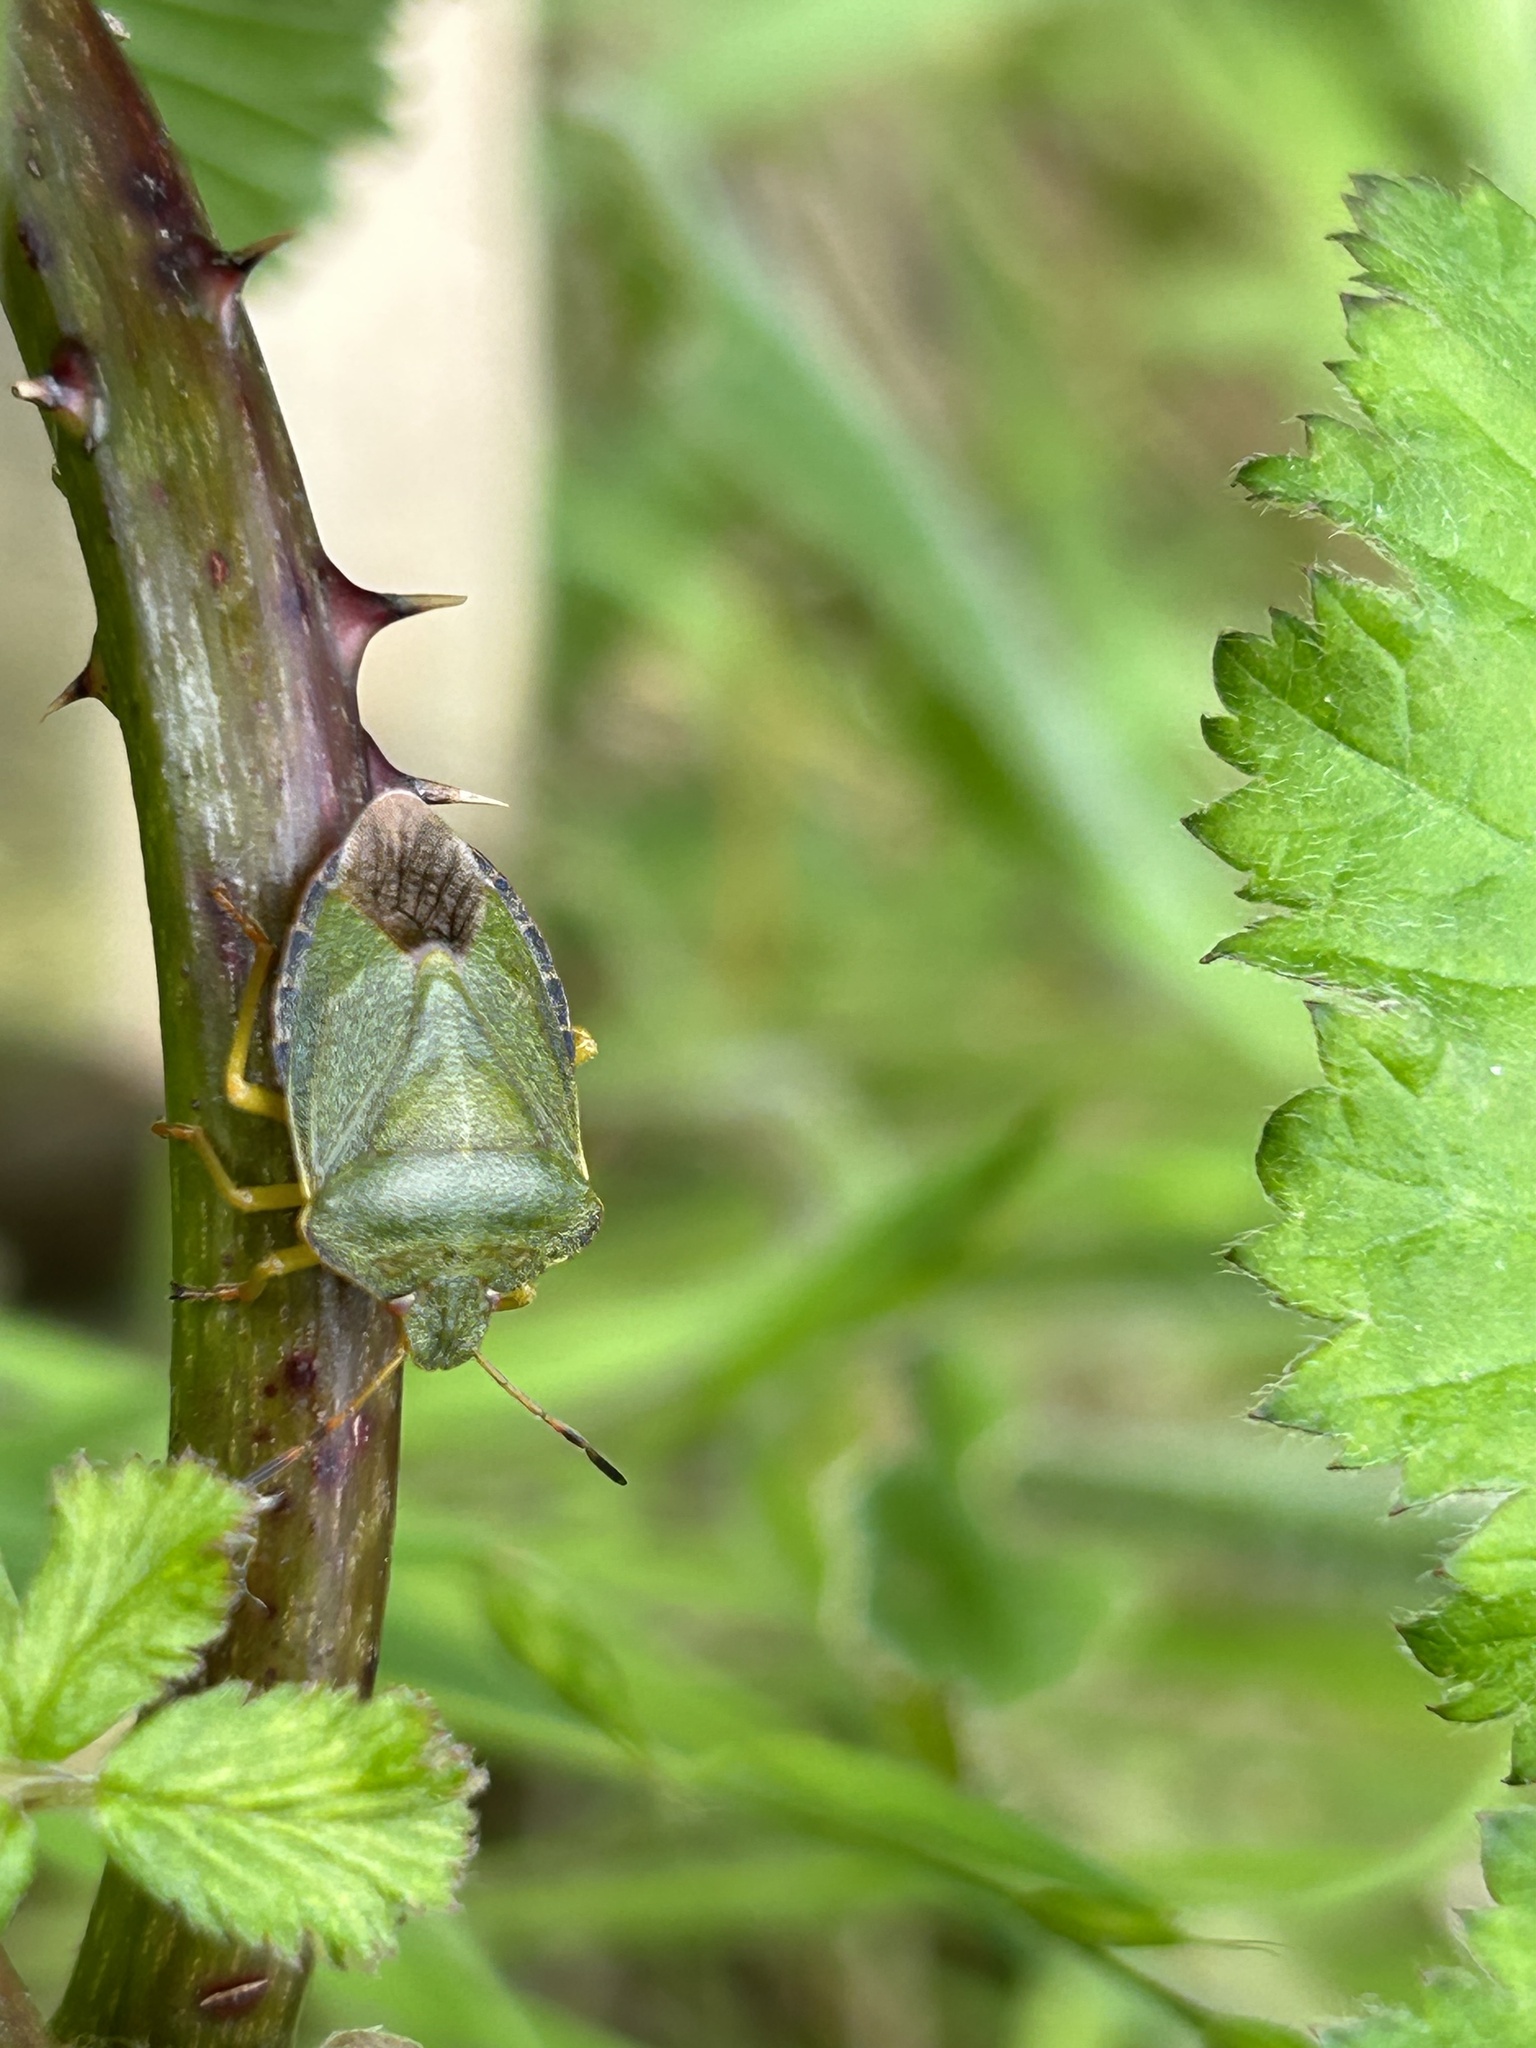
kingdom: Animalia
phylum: Arthropoda
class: Insecta
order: Hemiptera
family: Pentatomidae
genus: Palomena
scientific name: Palomena prasina
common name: Green shieldbug
